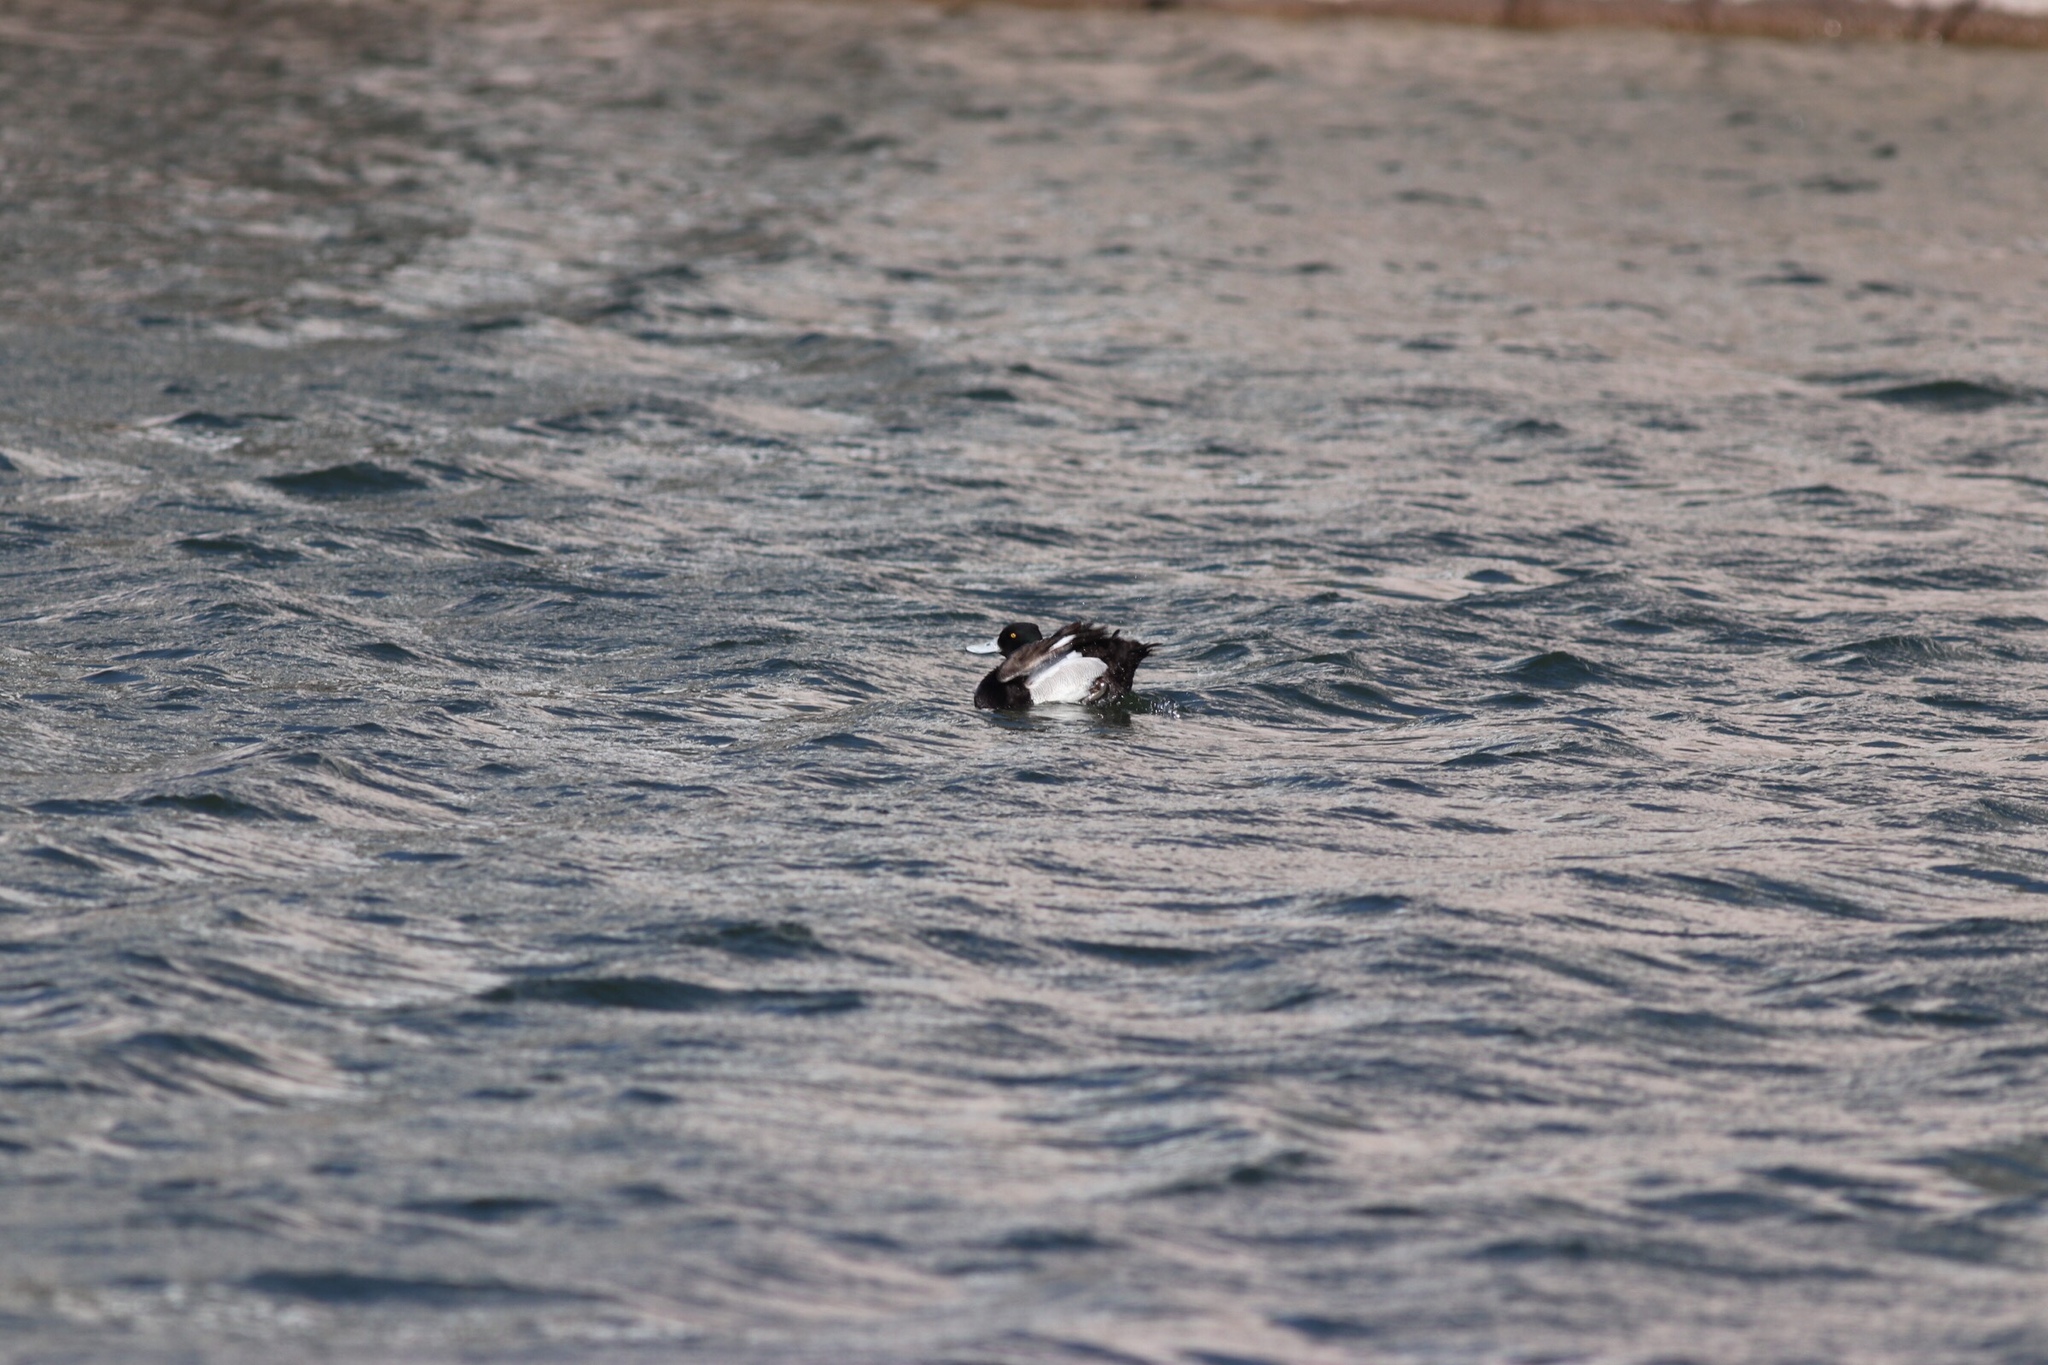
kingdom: Animalia
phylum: Chordata
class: Aves
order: Anseriformes
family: Anatidae
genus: Aythya
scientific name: Aythya affinis
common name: Lesser scaup
